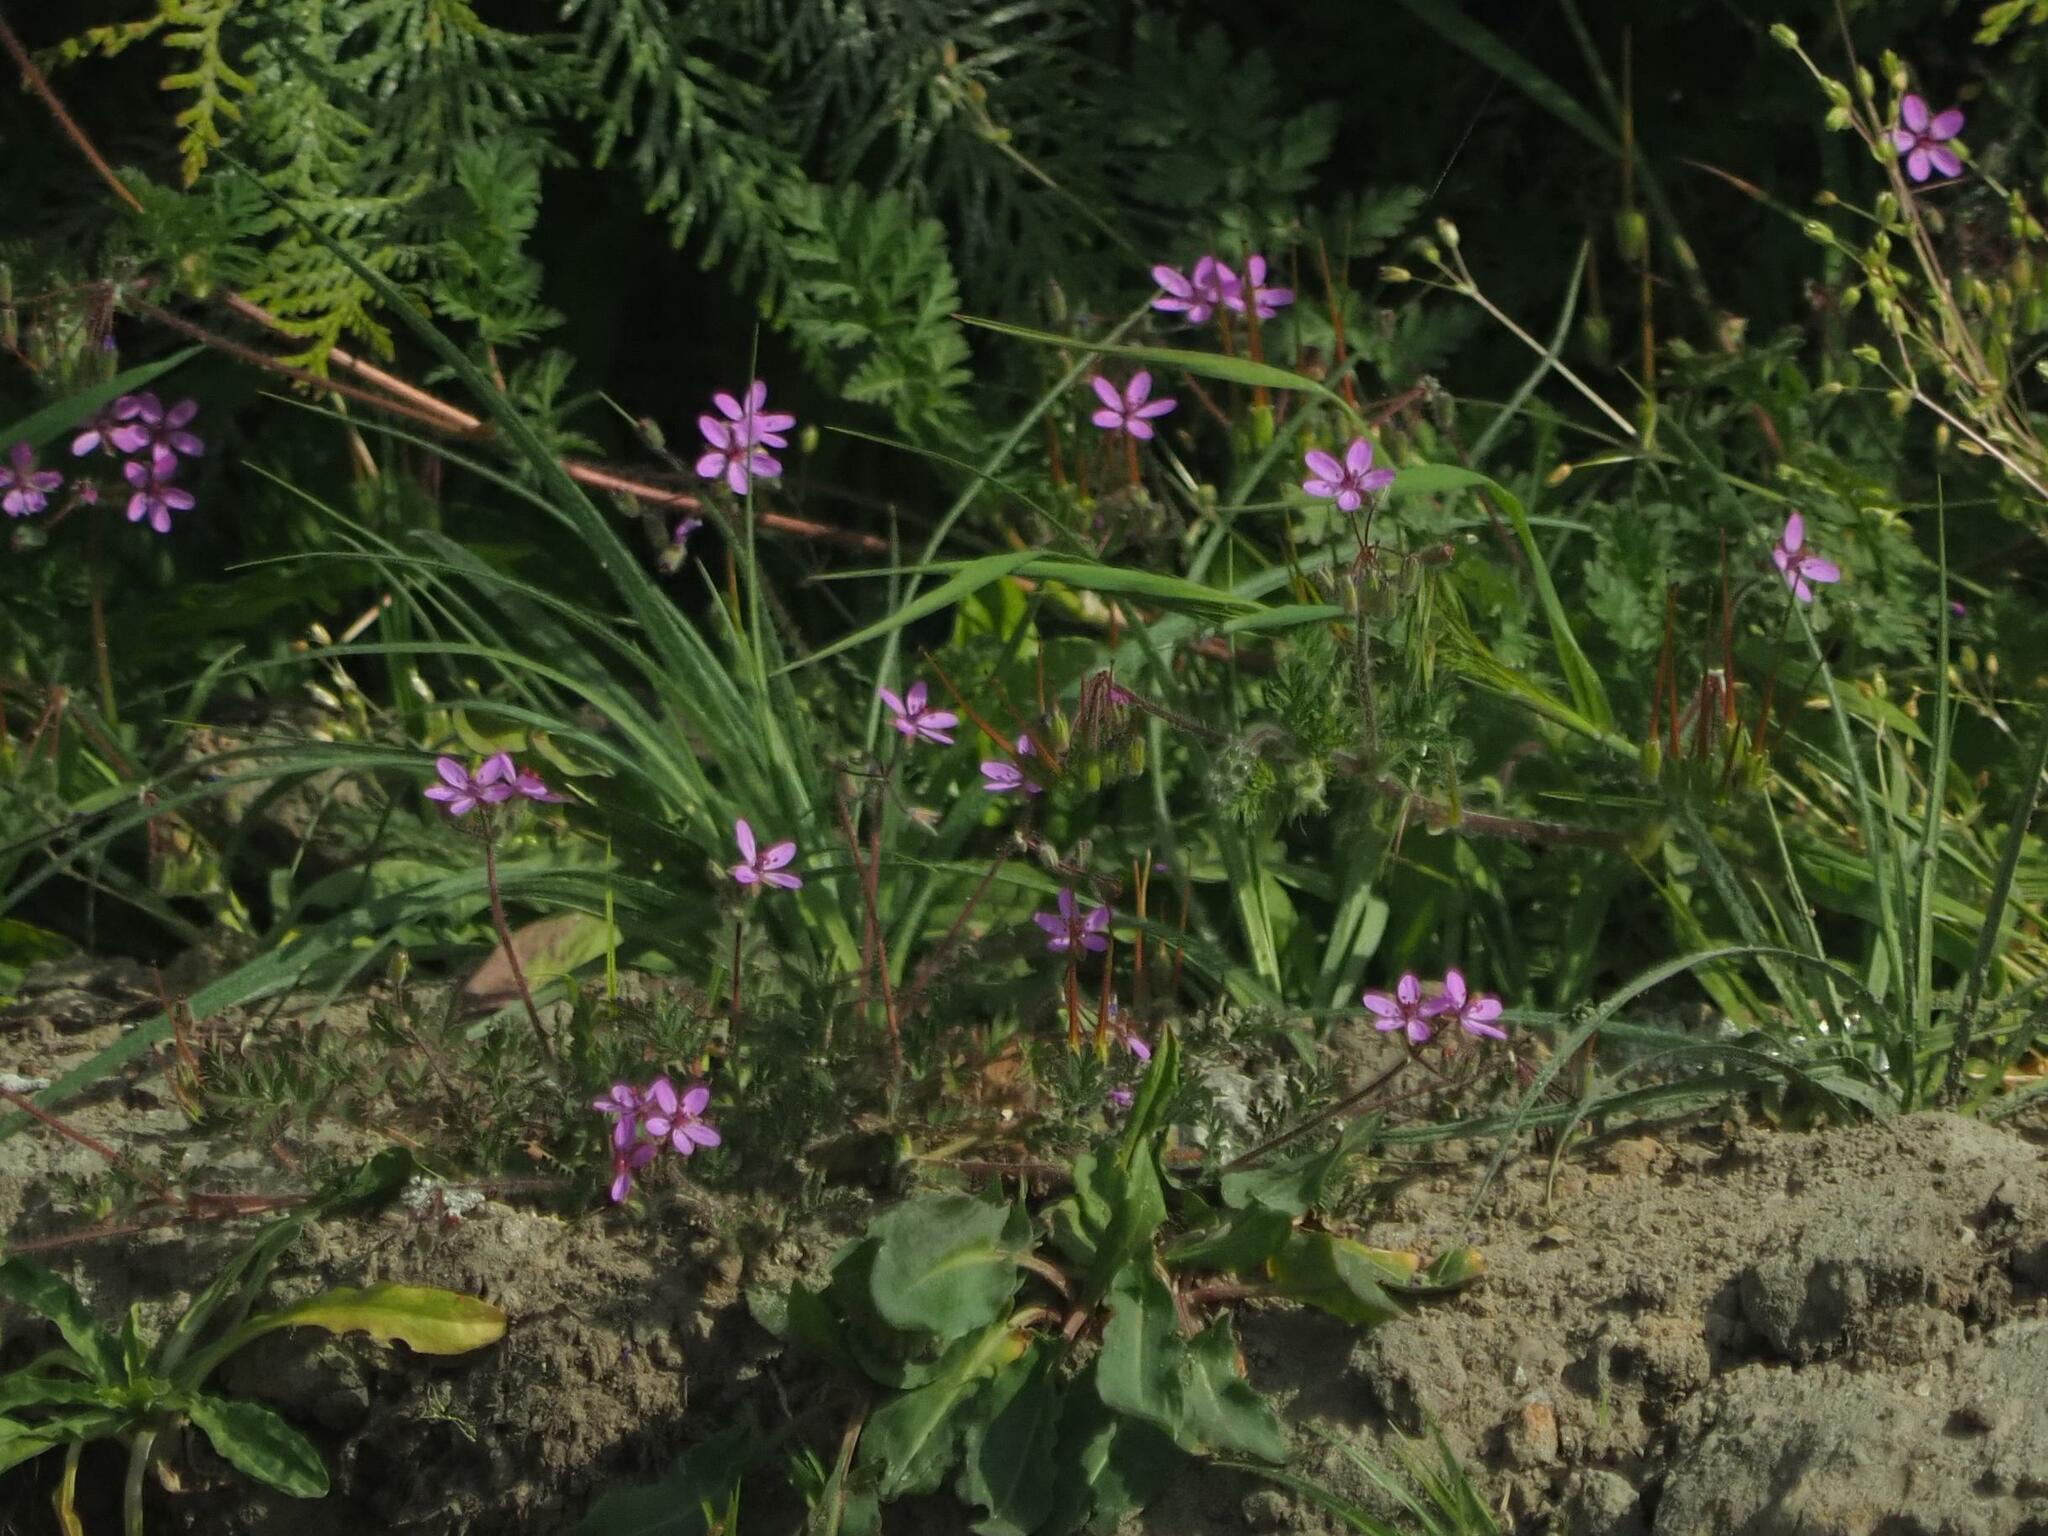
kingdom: Plantae
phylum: Tracheophyta
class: Magnoliopsida
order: Geraniales
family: Geraniaceae
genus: Erodium
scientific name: Erodium cicutarium
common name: Common stork's-bill
